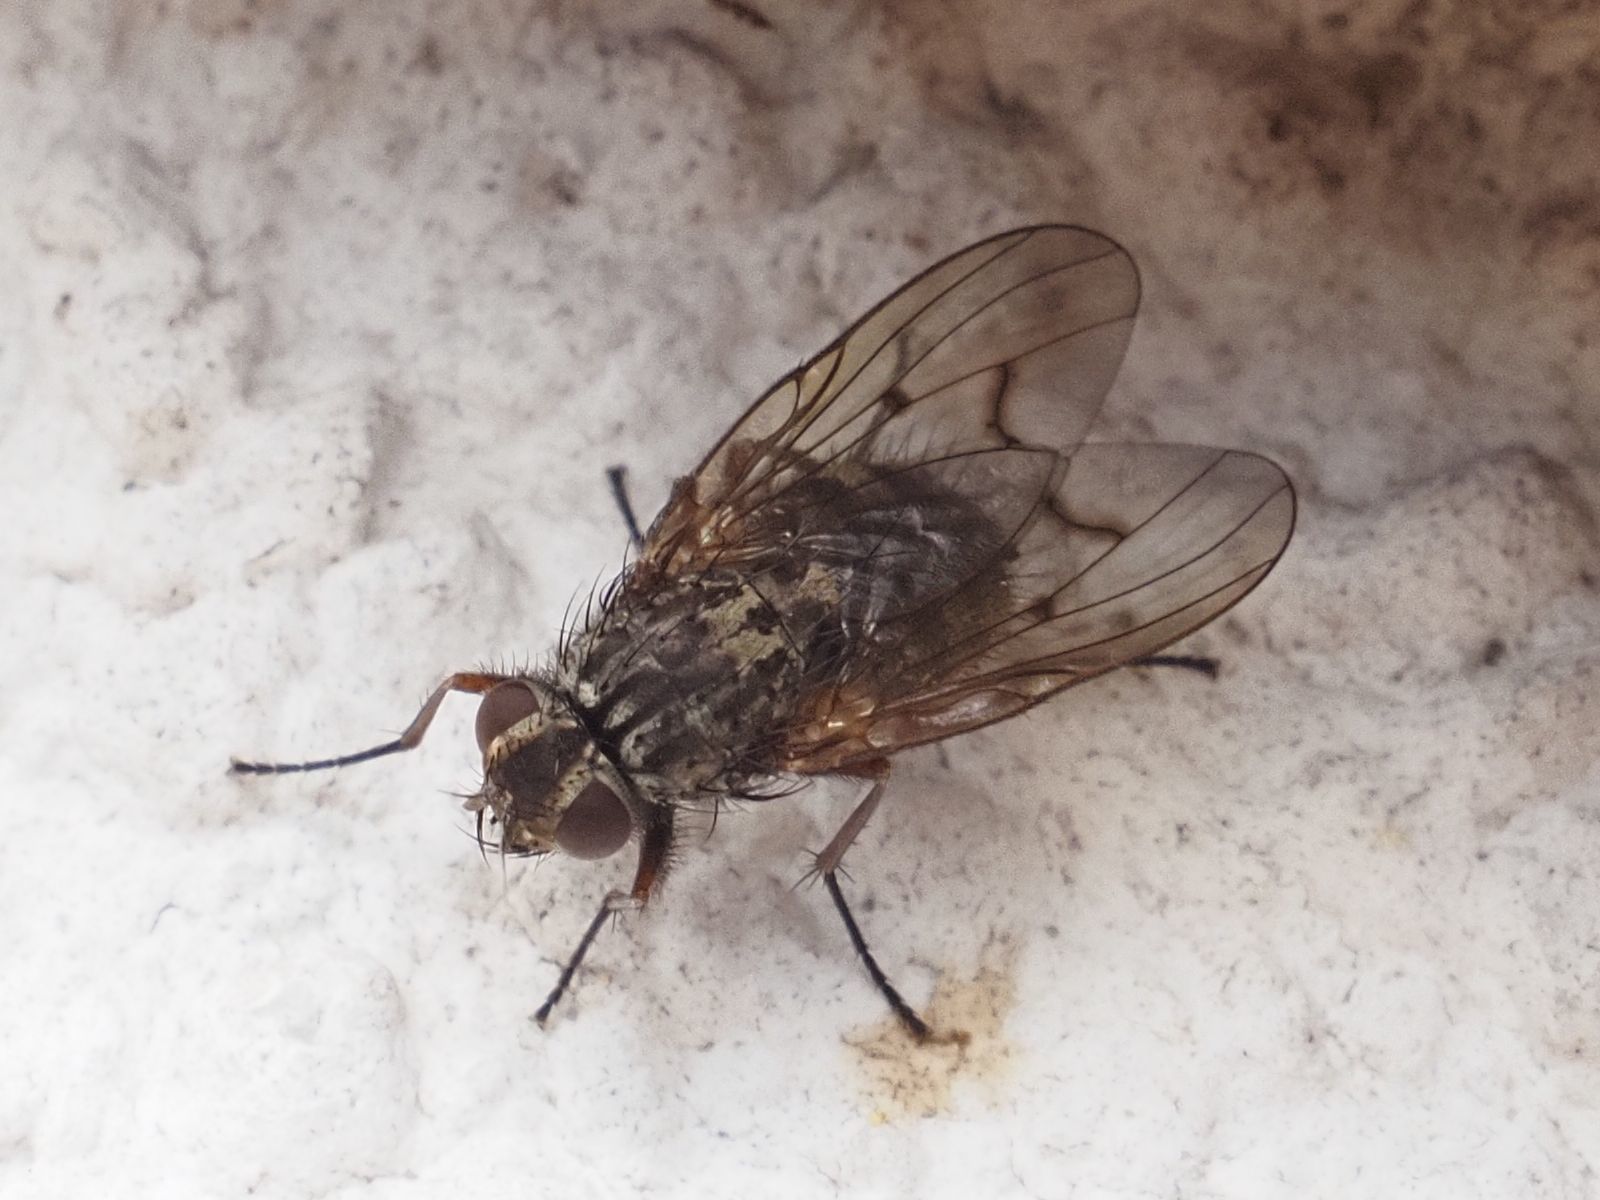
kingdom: Animalia
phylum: Arthropoda
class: Insecta
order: Diptera
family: Muscidae
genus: Phaonia
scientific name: Phaonia tuguriorum
